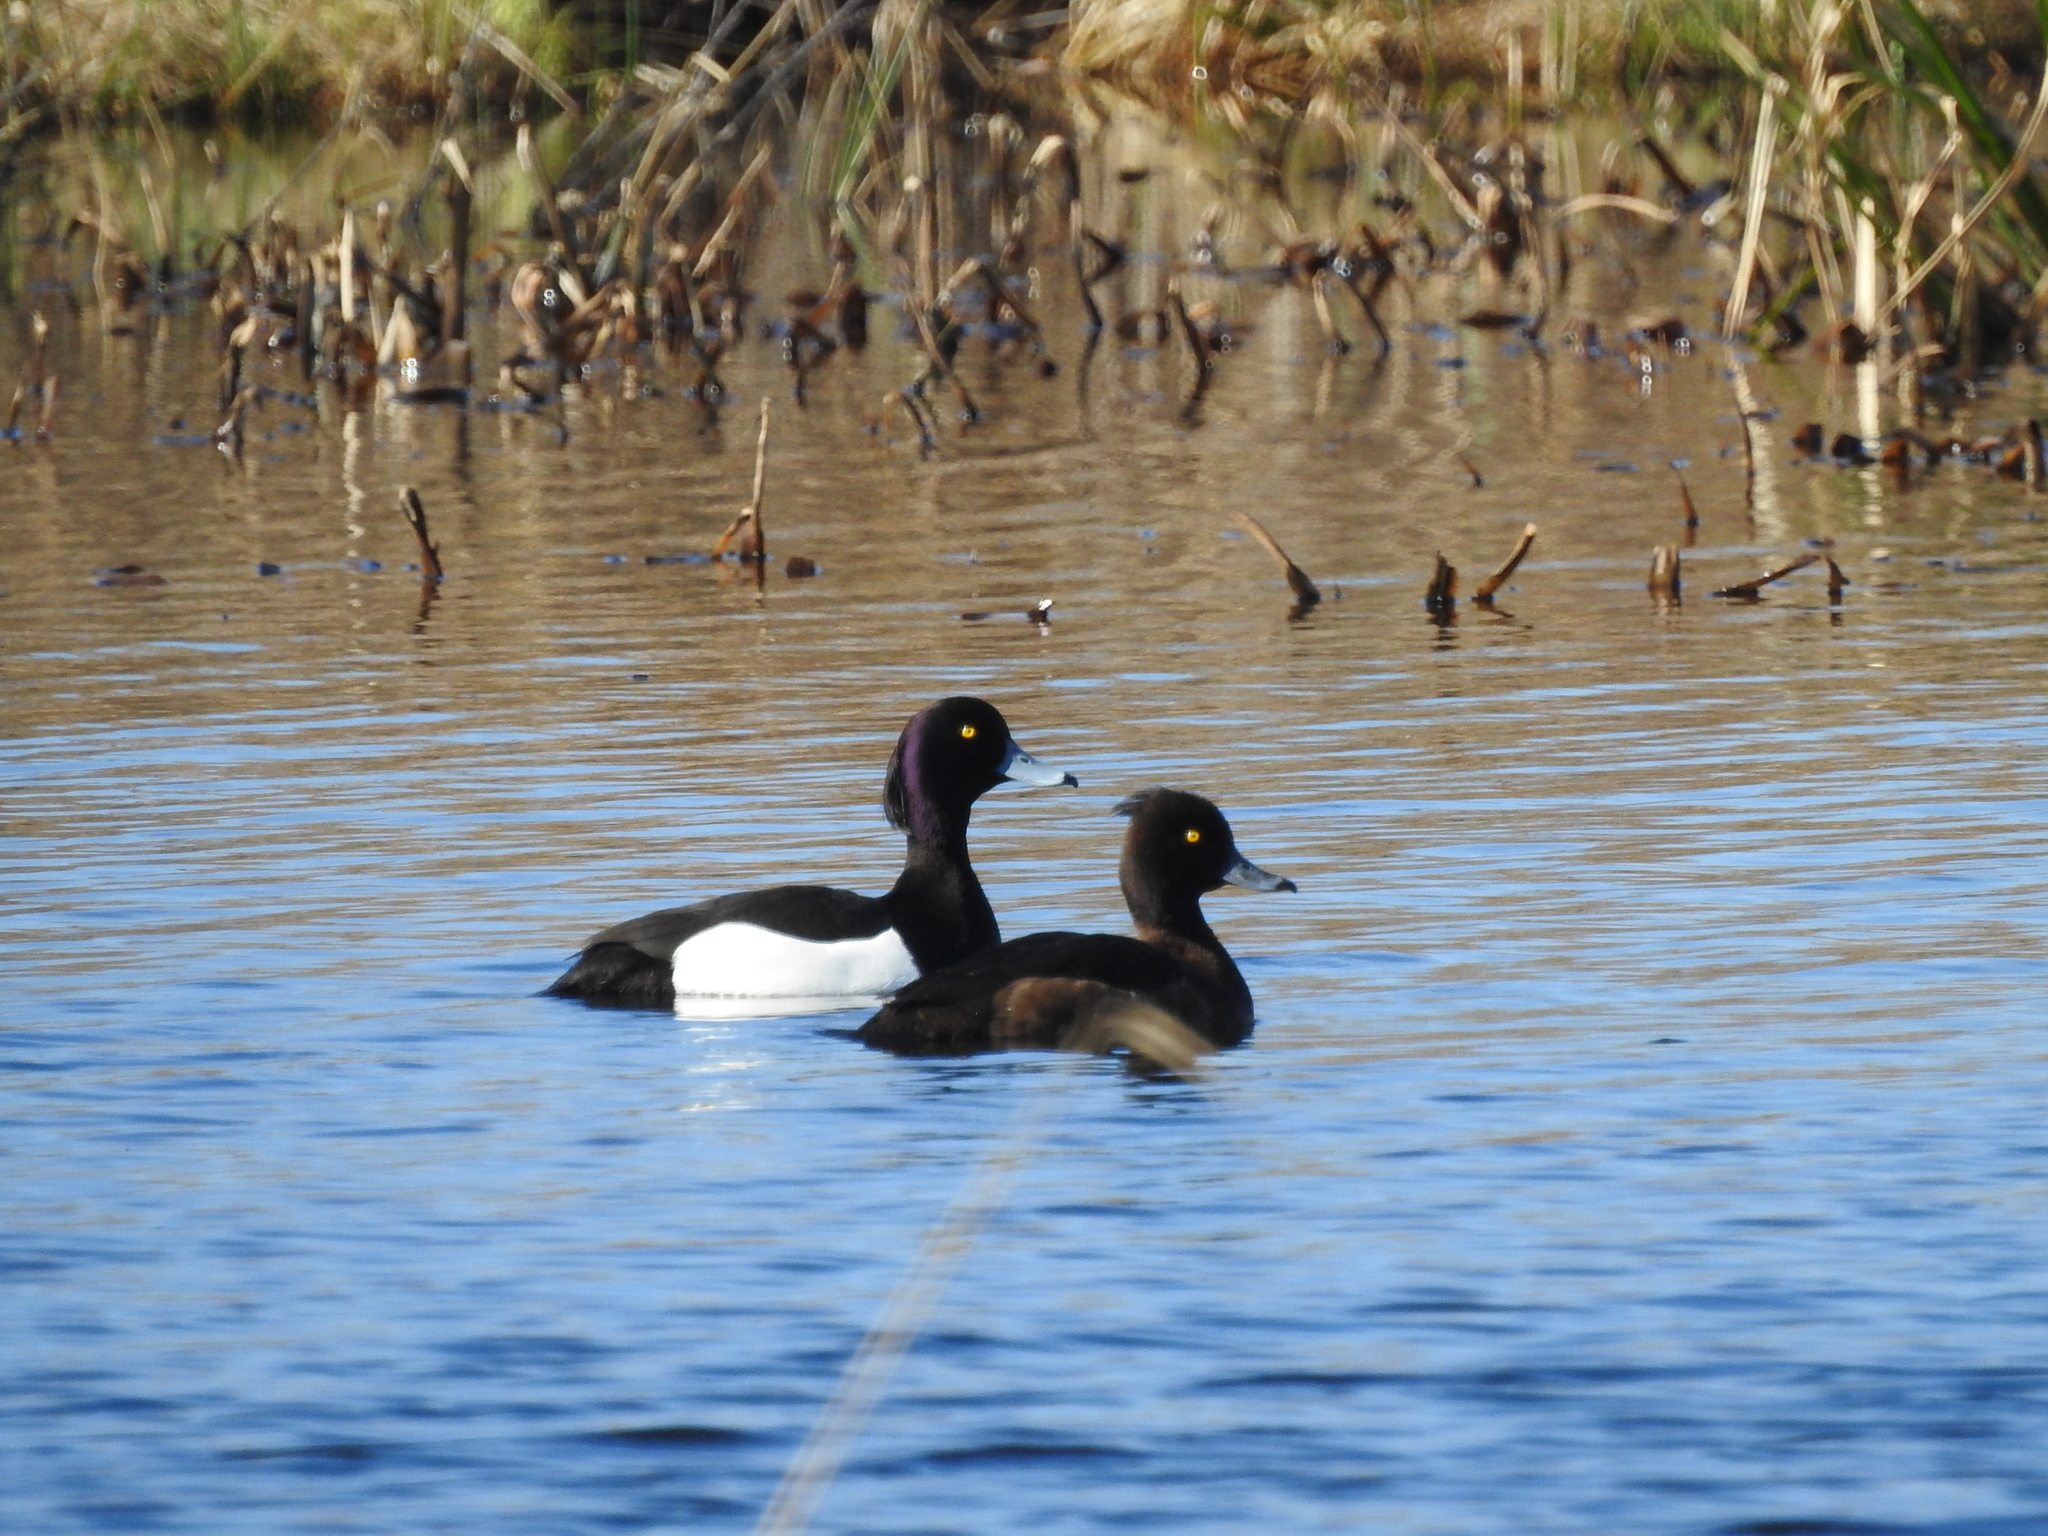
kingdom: Animalia
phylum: Chordata
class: Aves
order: Anseriformes
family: Anatidae
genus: Aythya
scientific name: Aythya fuligula
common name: Tufted duck
